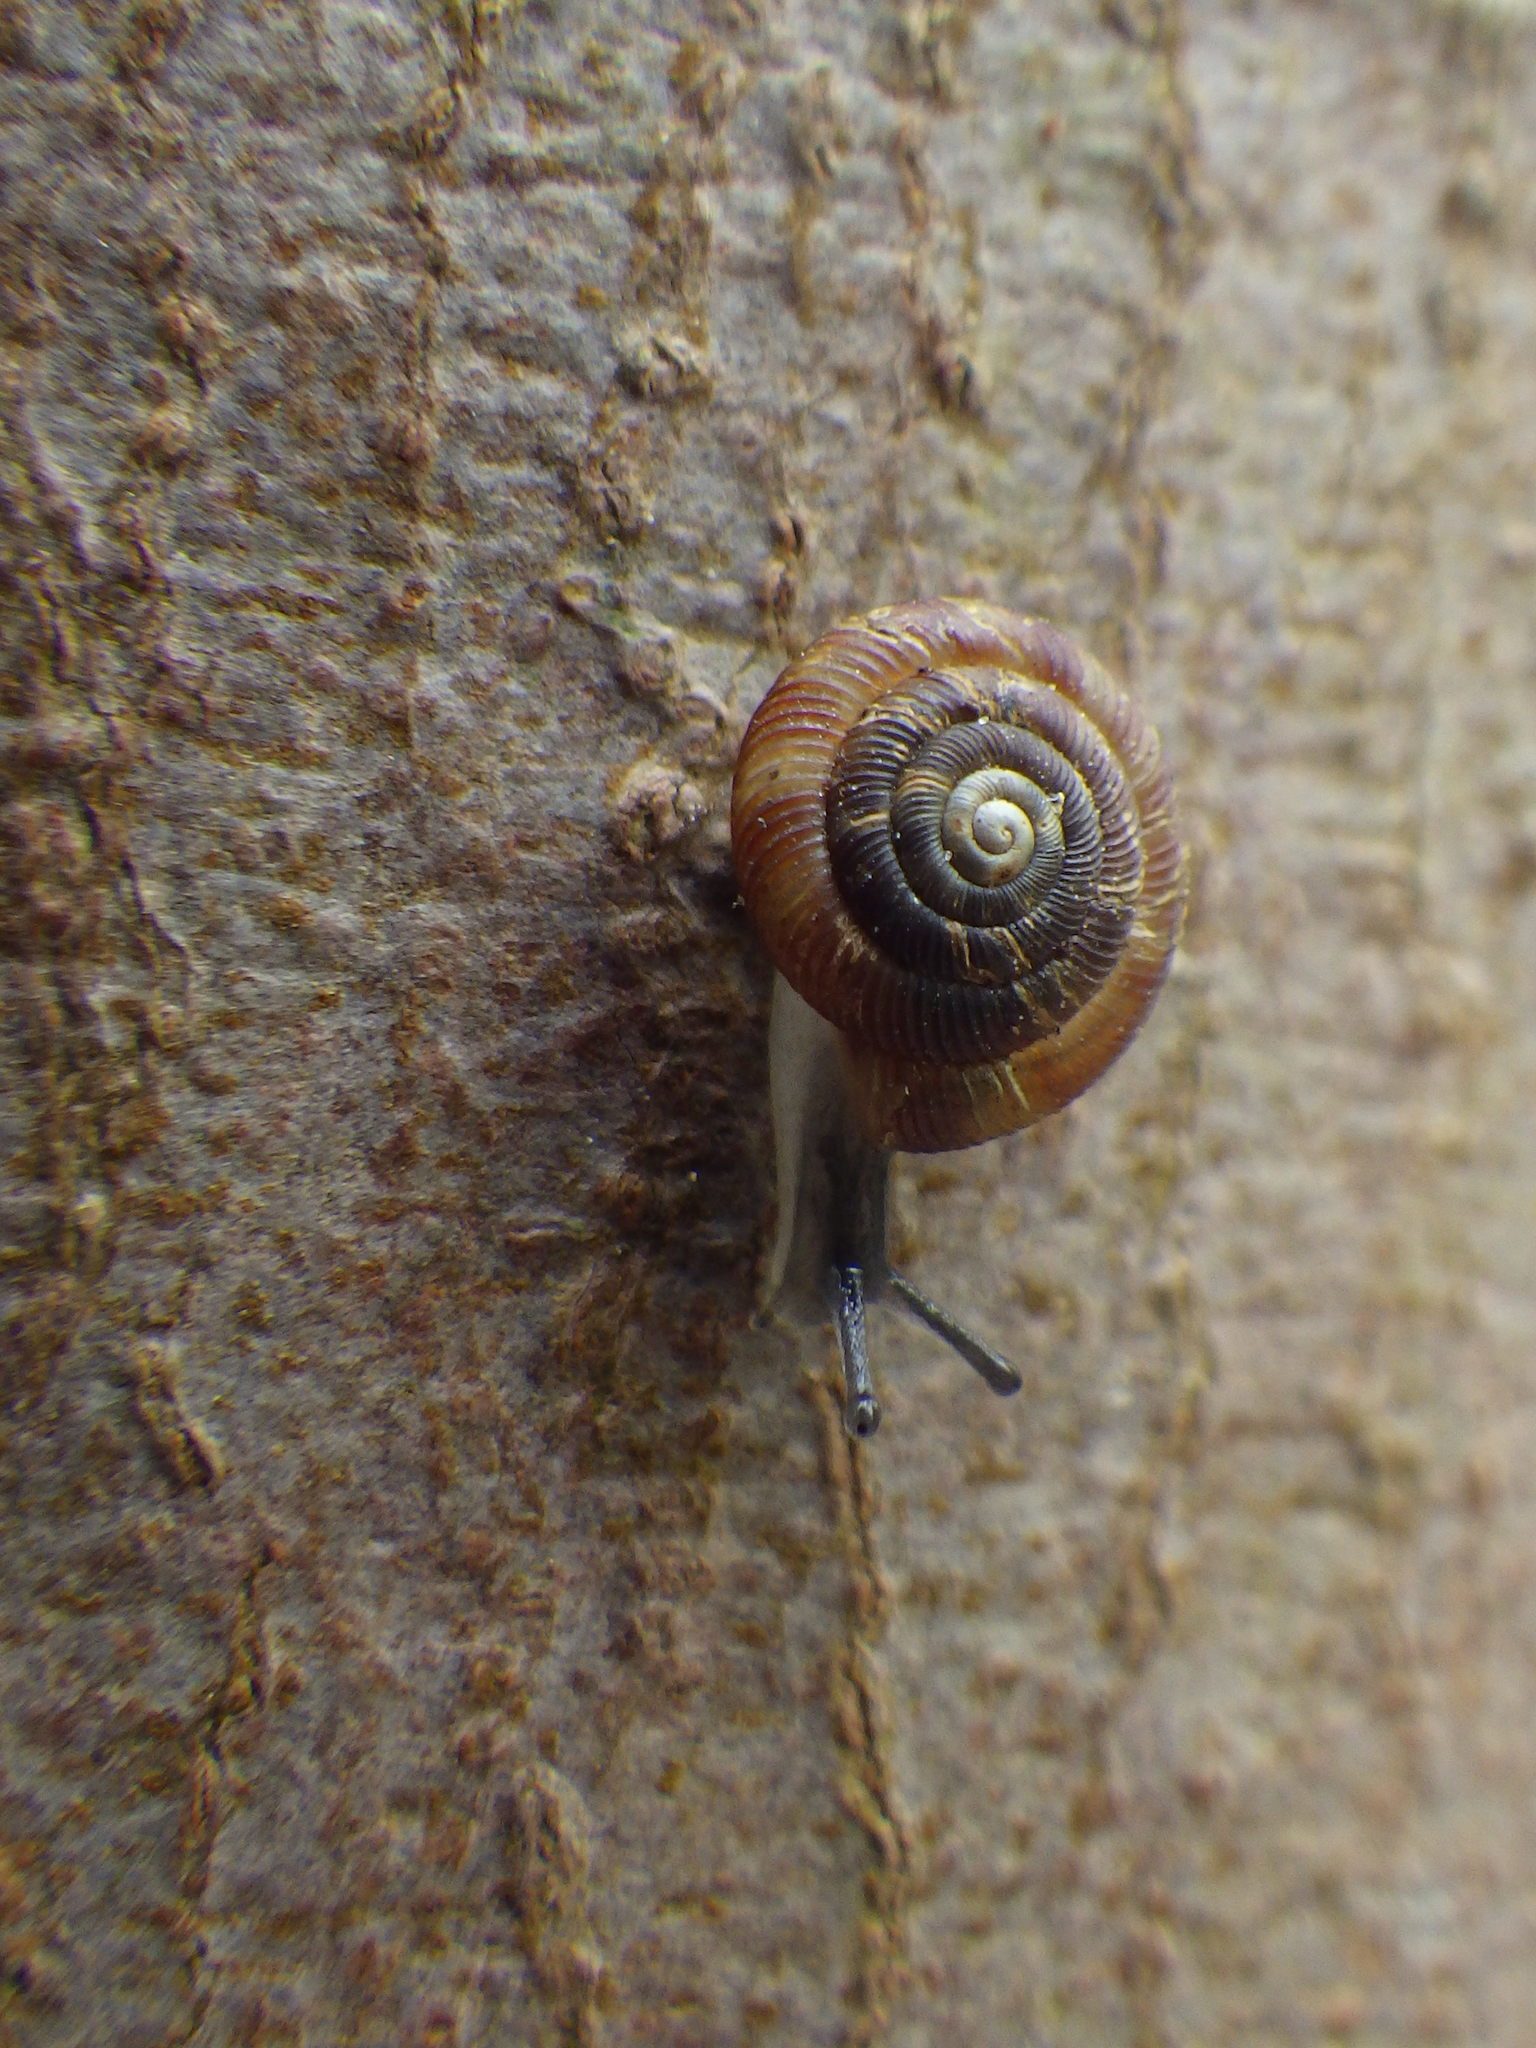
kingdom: Animalia
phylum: Mollusca
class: Gastropoda
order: Stylommatophora
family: Discidae
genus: Discus
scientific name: Discus rotundatus
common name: Rounded snail
